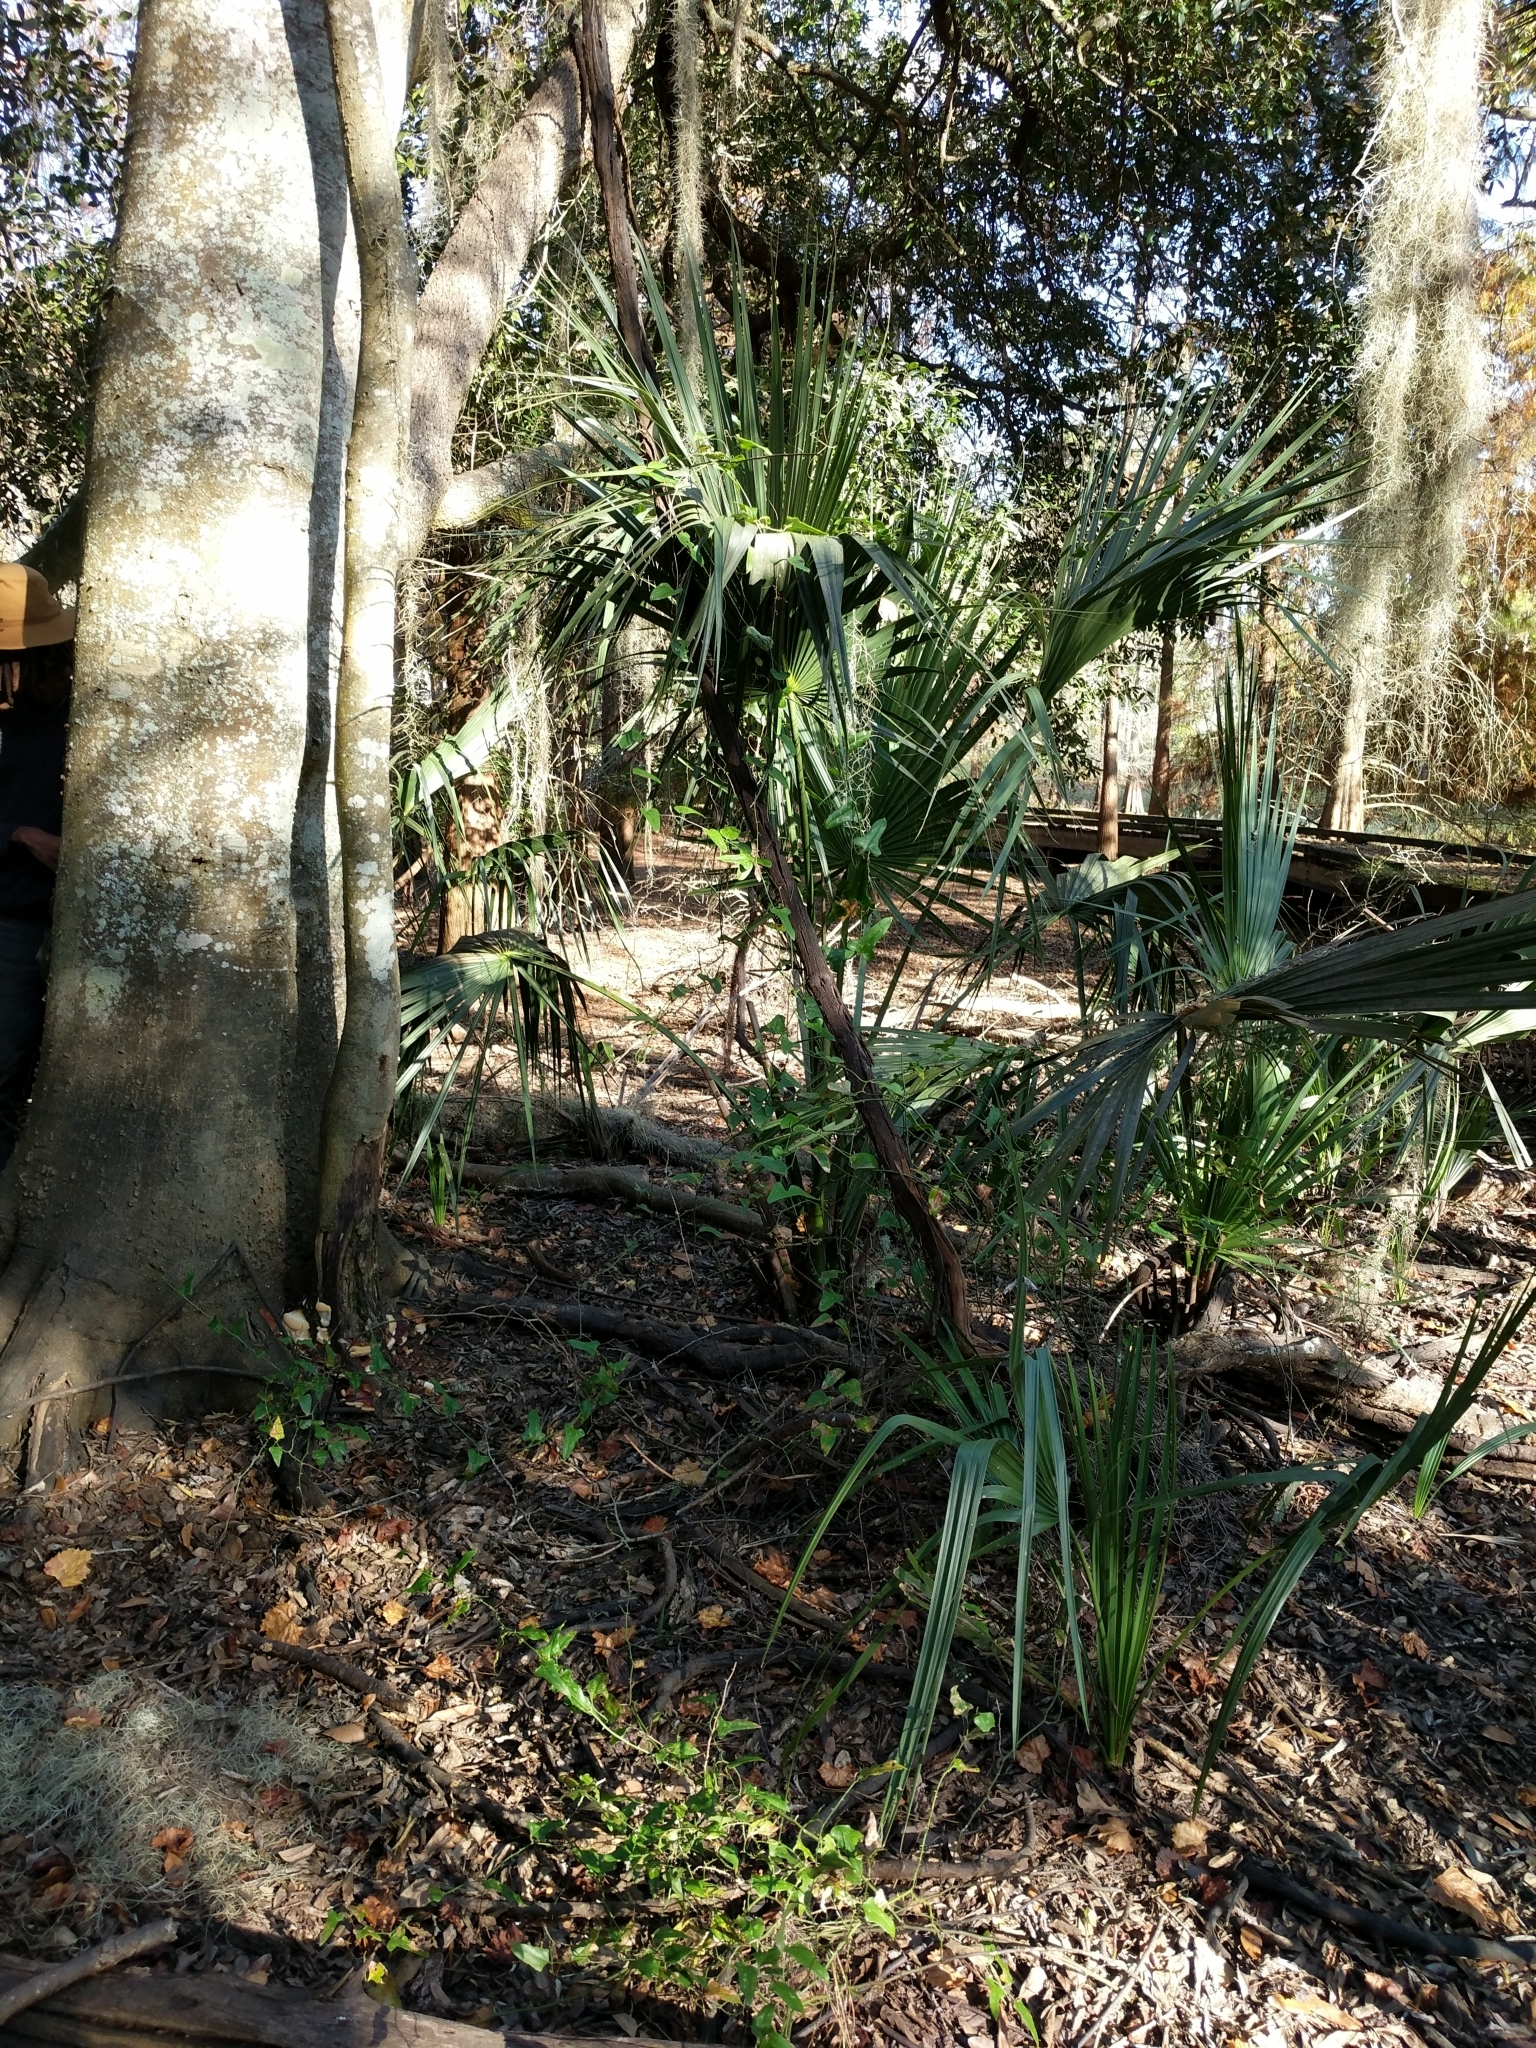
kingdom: Fungi
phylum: Basidiomycota
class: Agaricomycetes
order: Polyporales
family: Polyporaceae
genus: Ganoderma
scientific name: Ganoderma resinaceum
